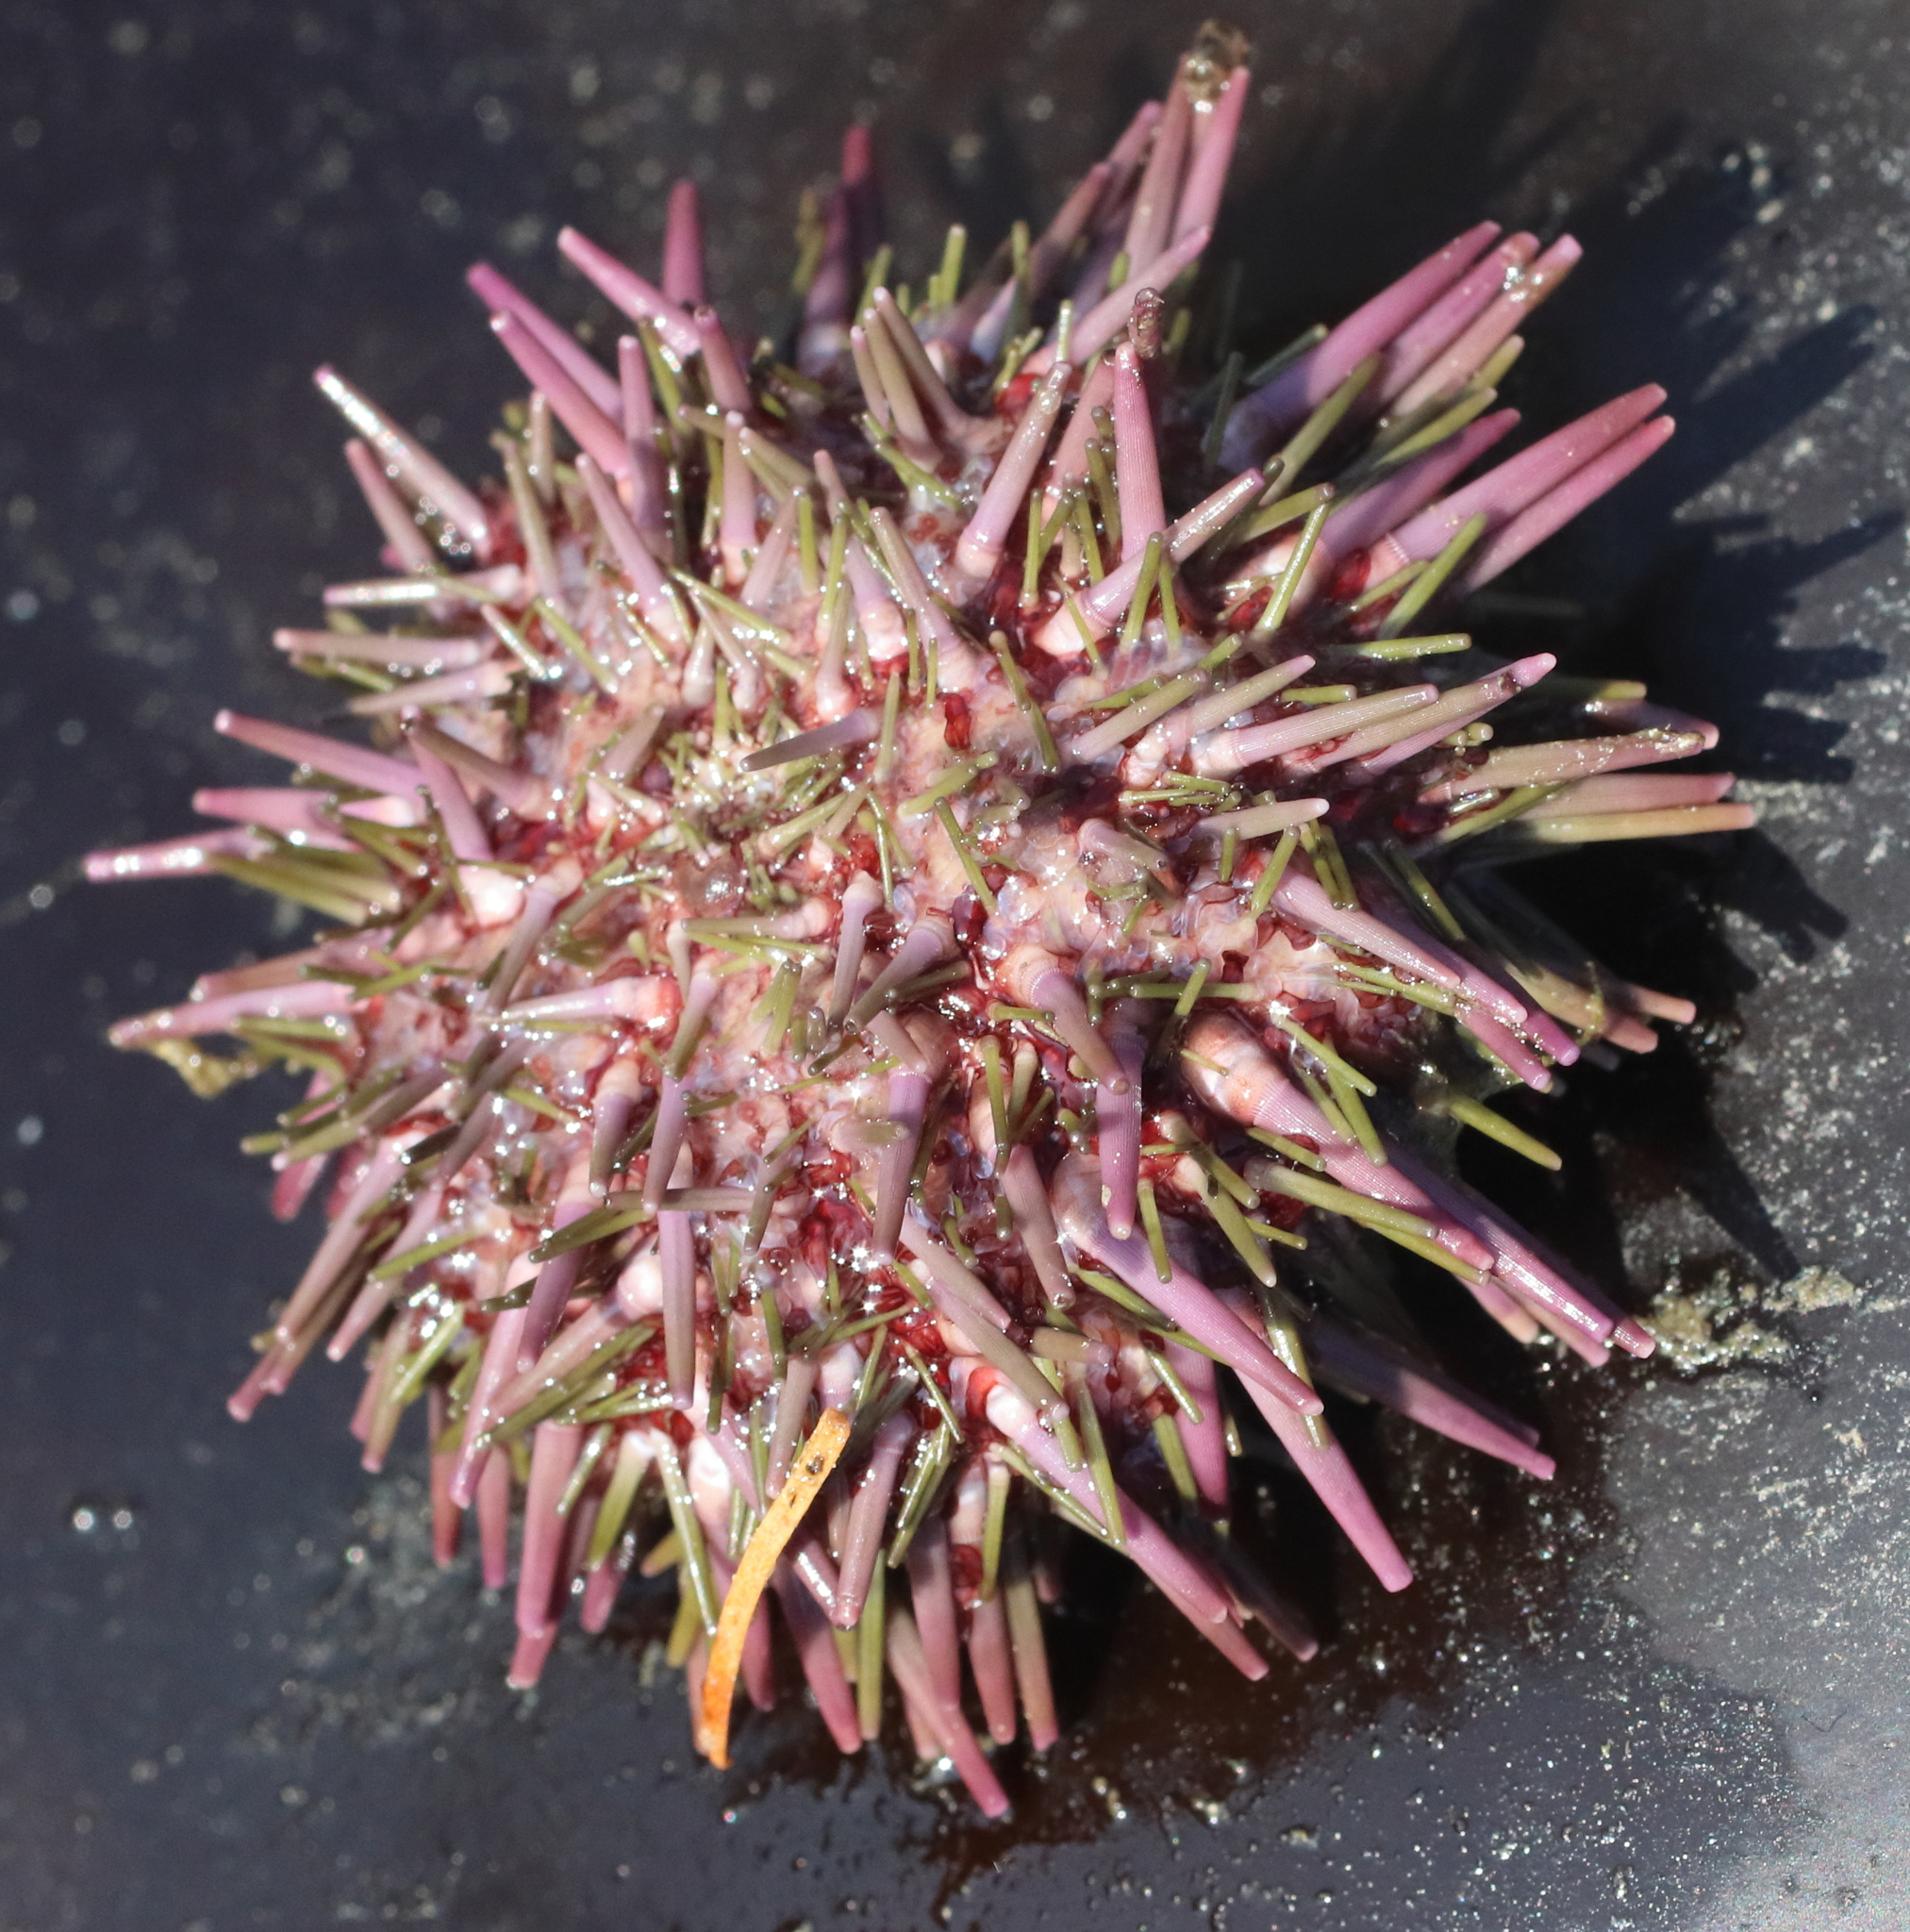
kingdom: Animalia
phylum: Echinodermata
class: Echinoidea
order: Camarodonta
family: Strongylocentrotidae
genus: Strongylocentrotus
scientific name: Strongylocentrotus purpuratus
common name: Purple sea urchin
